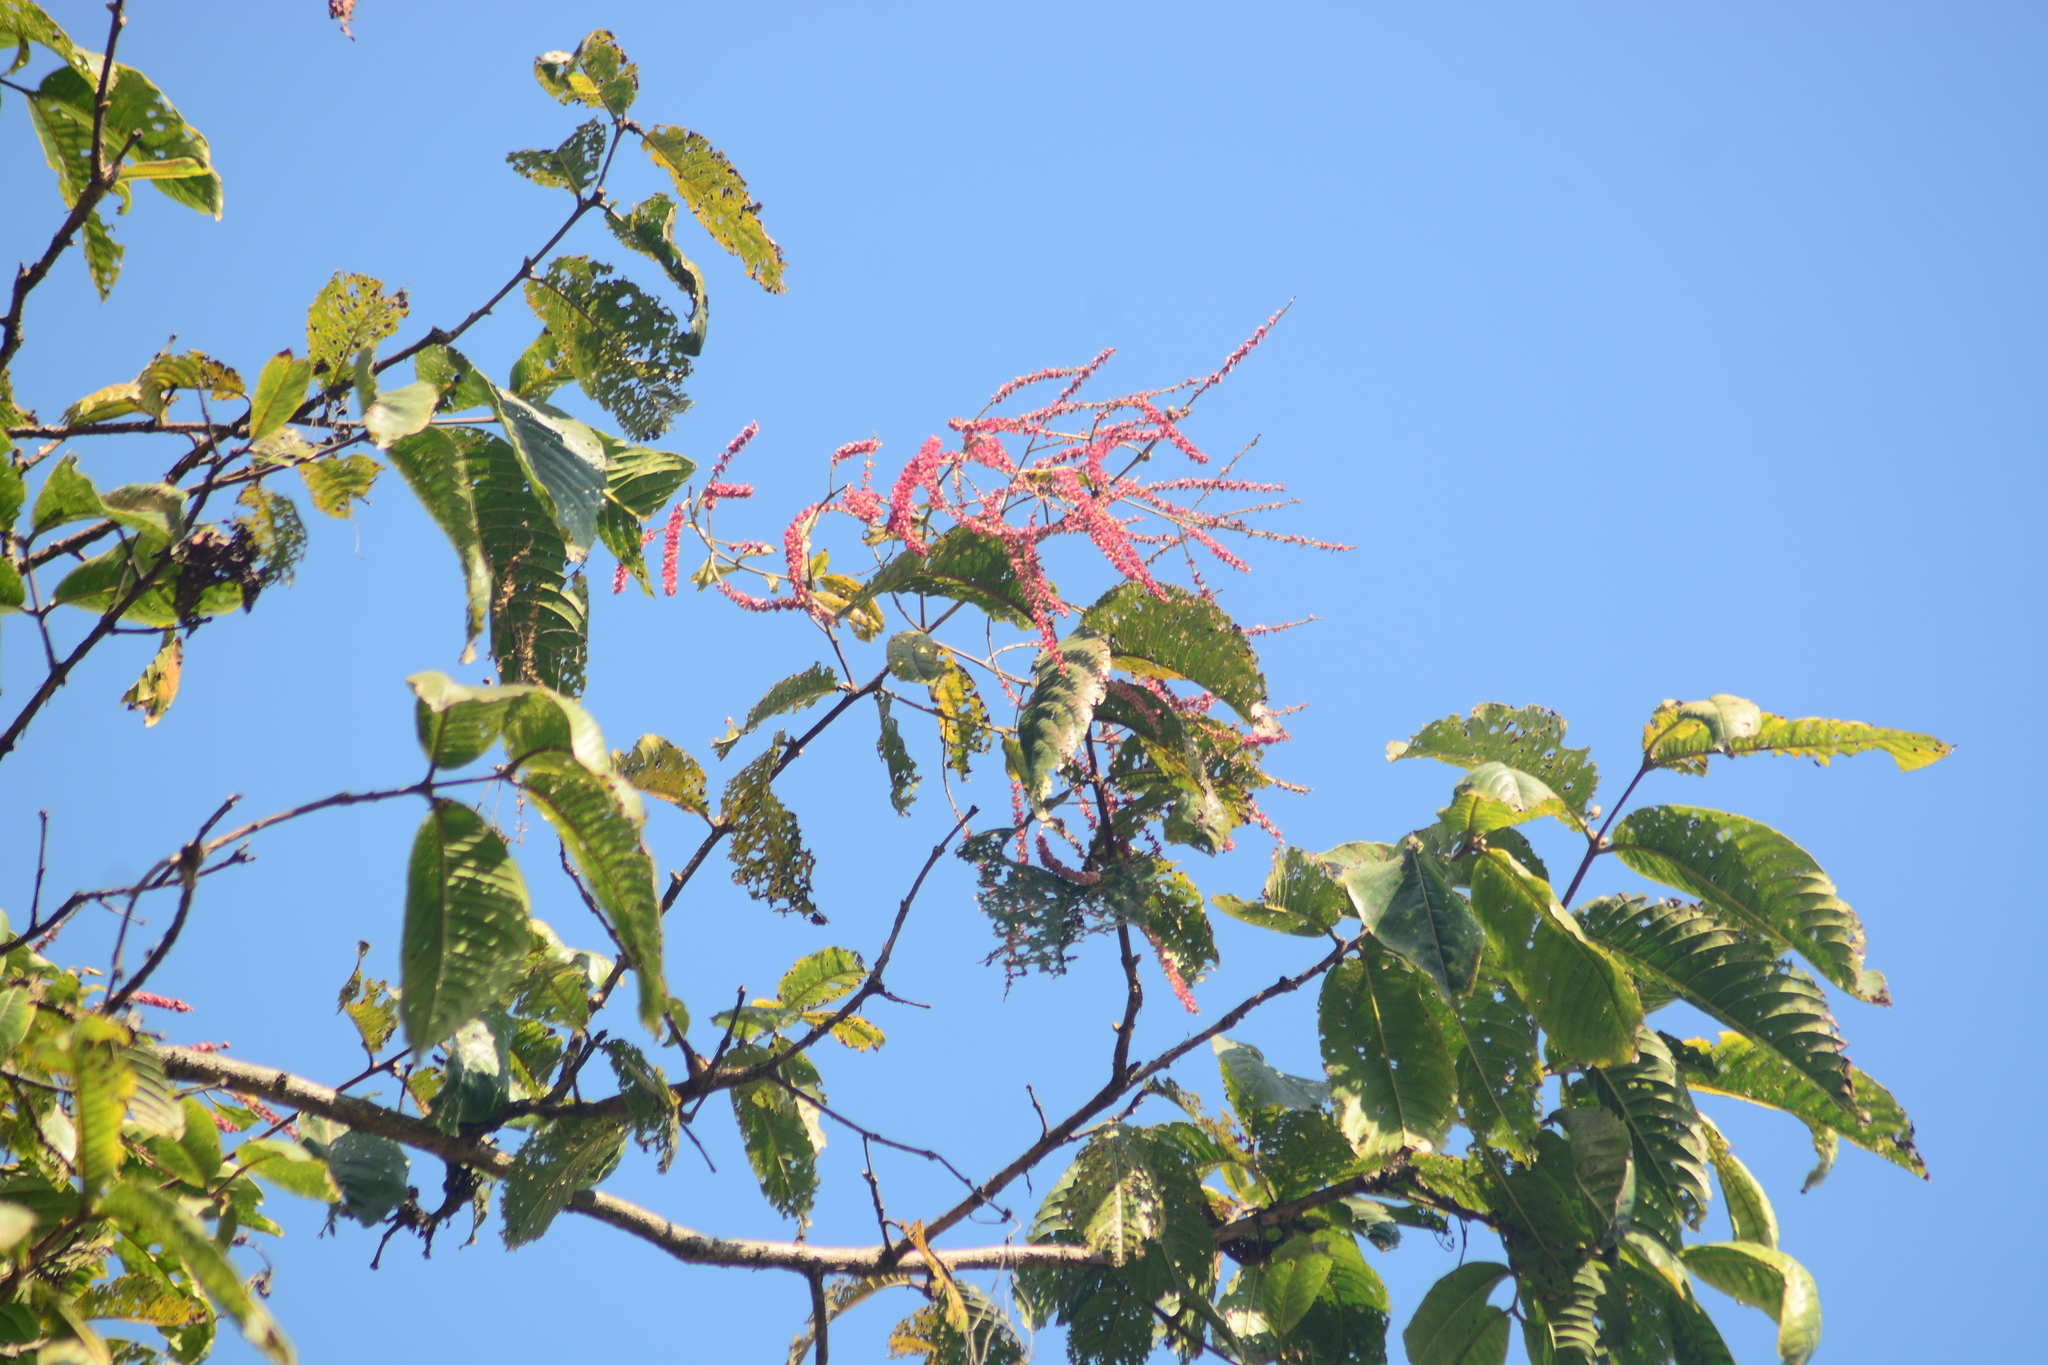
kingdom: Plantae
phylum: Tracheophyta
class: Magnoliopsida
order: Myrtales
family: Combretaceae
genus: Terminalia
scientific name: Terminalia myriocarpa
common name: Hollock
